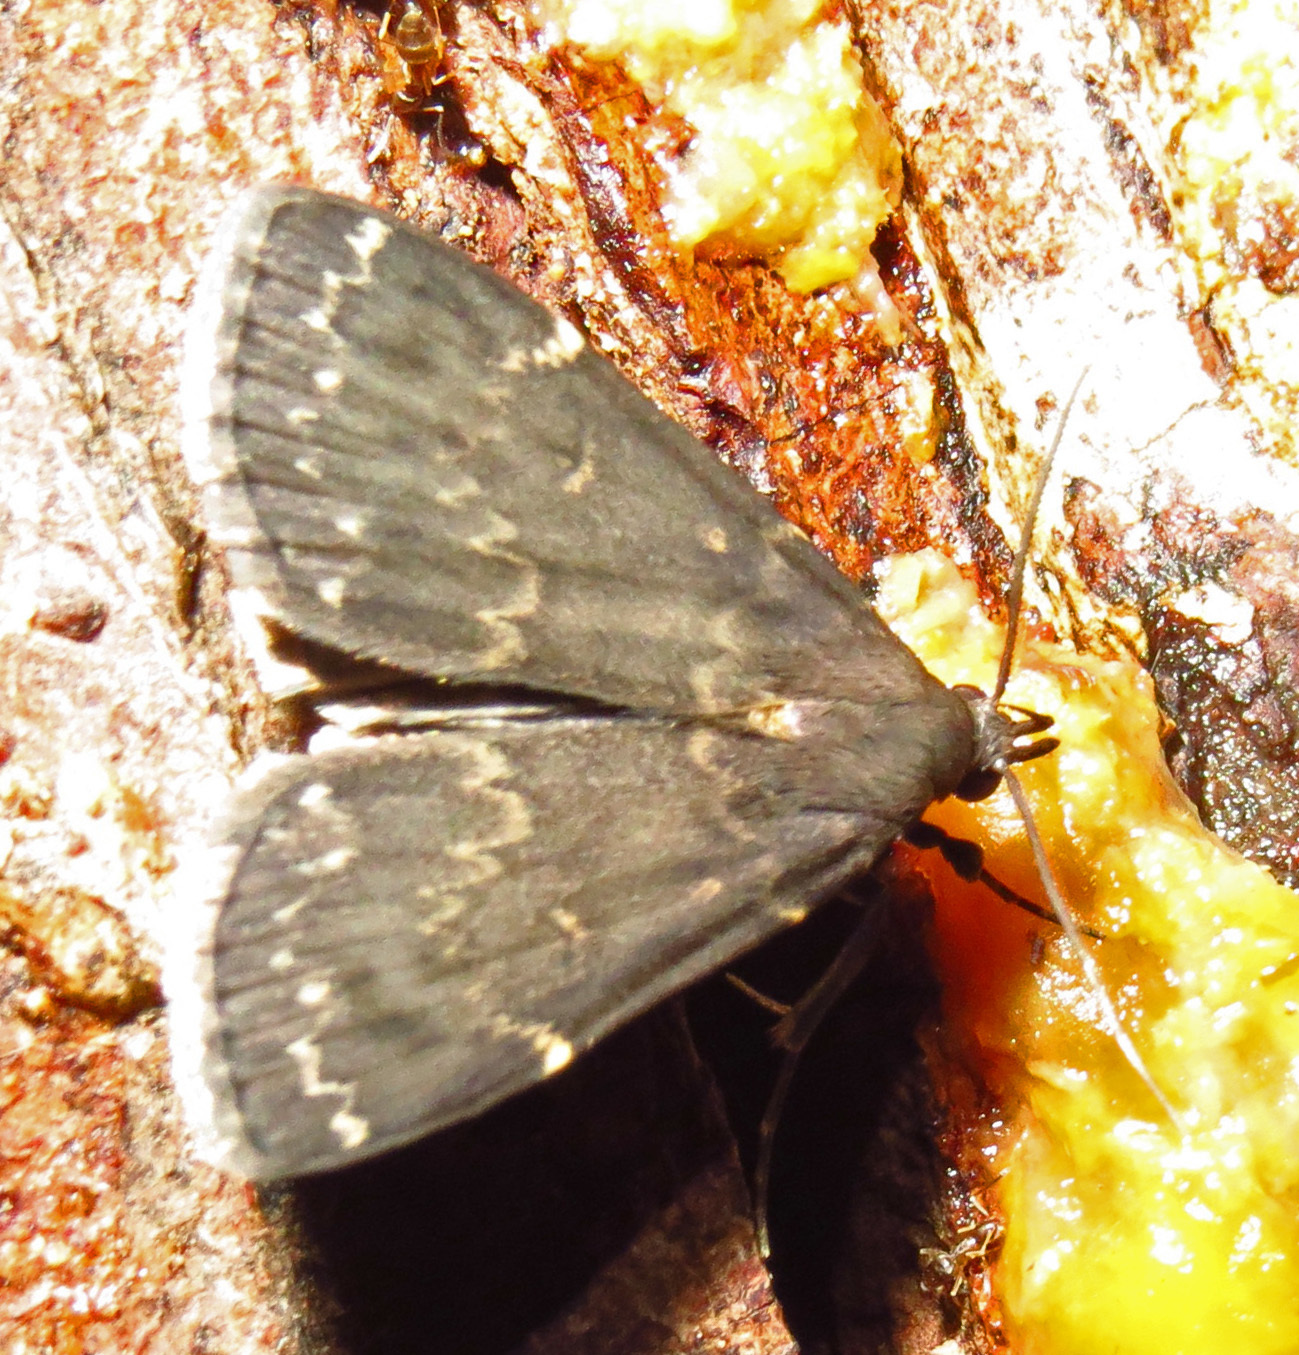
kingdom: Animalia
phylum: Arthropoda
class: Insecta
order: Lepidoptera
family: Erebidae
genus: Idia
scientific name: Idia lubricalis
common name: Twin-striped tabby
